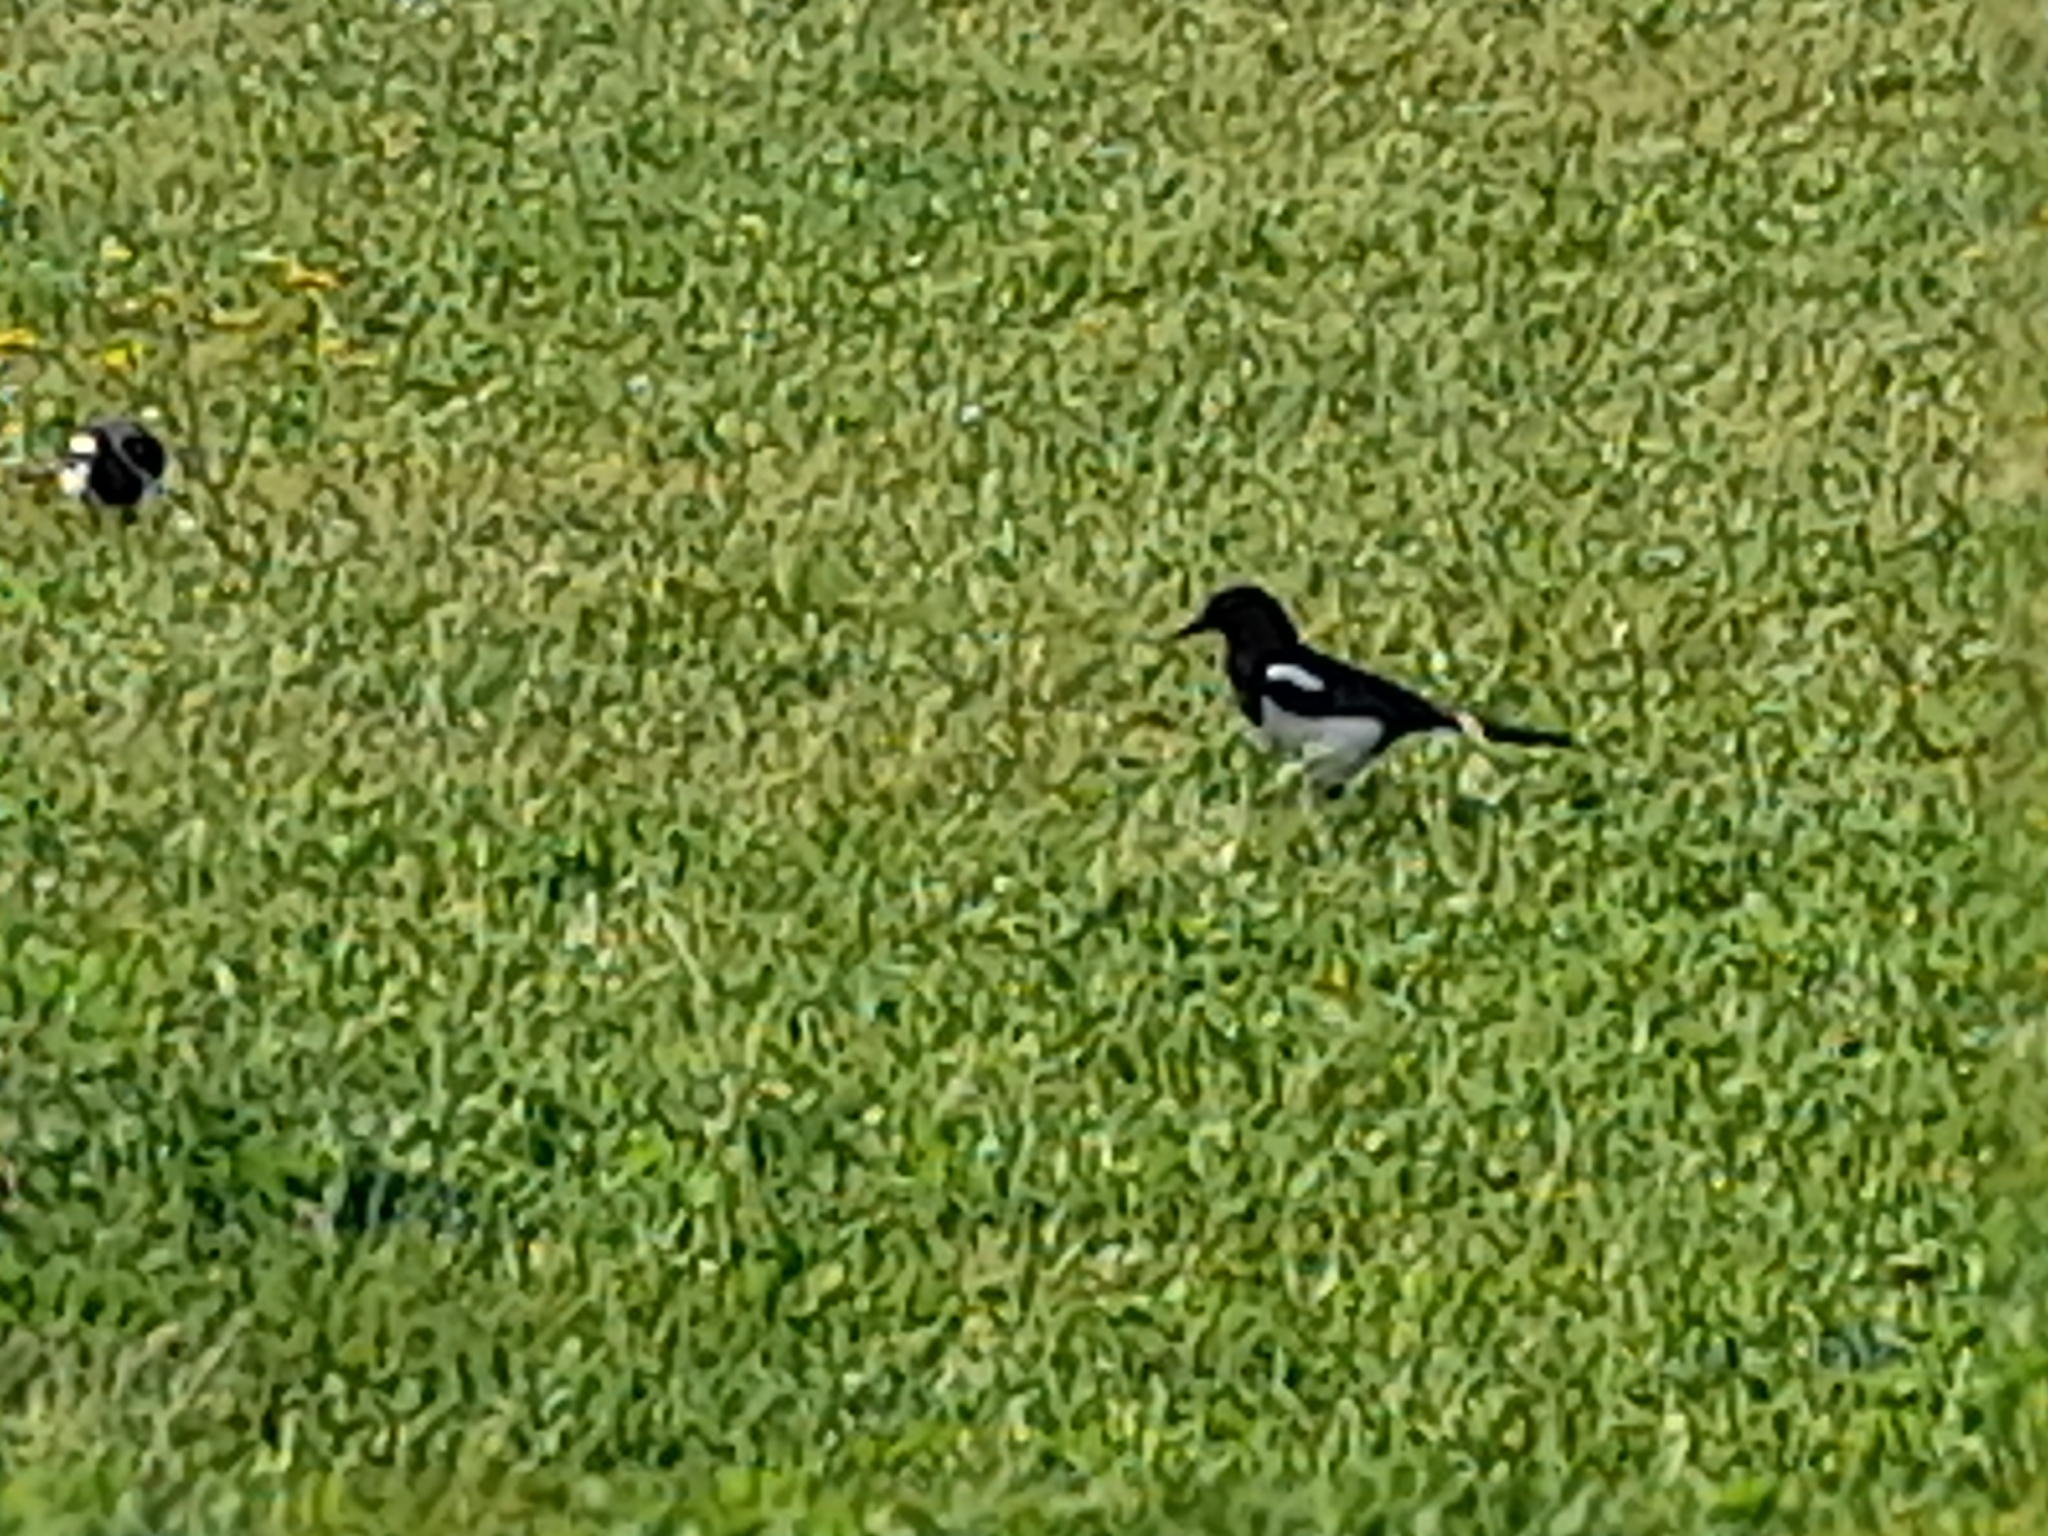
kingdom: Animalia
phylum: Chordata
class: Aves
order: Passeriformes
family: Corvidae
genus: Pica
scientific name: Pica pica
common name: Eurasian magpie
